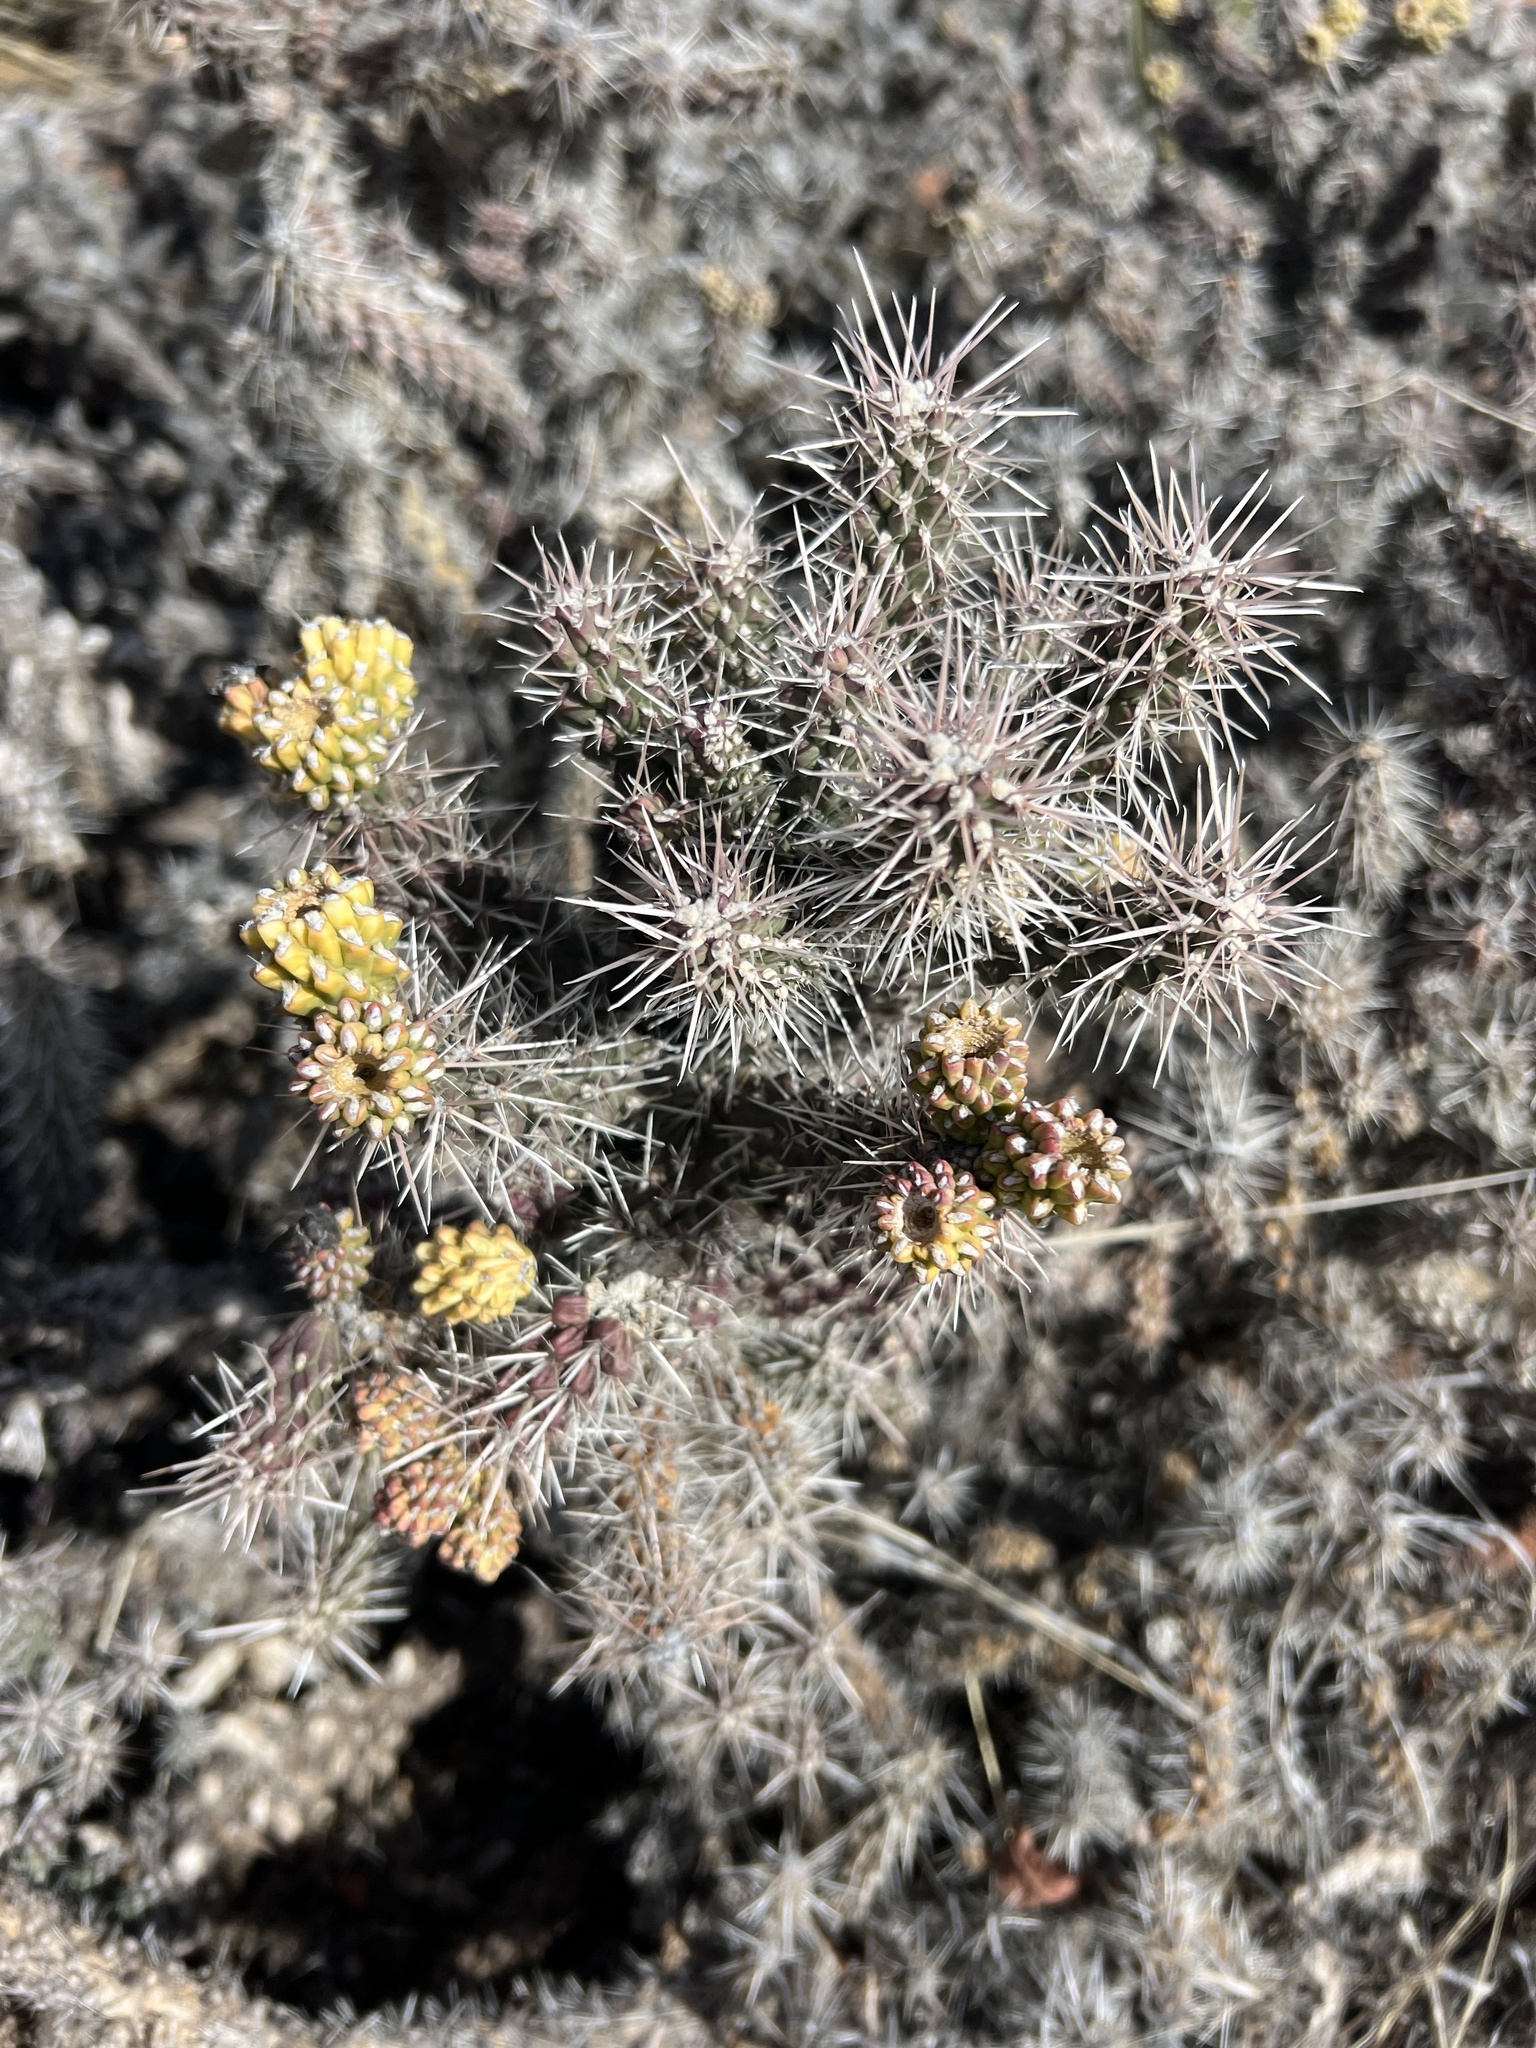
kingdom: Plantae
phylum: Tracheophyta
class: Magnoliopsida
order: Caryophyllales
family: Cactaceae
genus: Cylindropuntia
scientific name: Cylindropuntia whipplei
